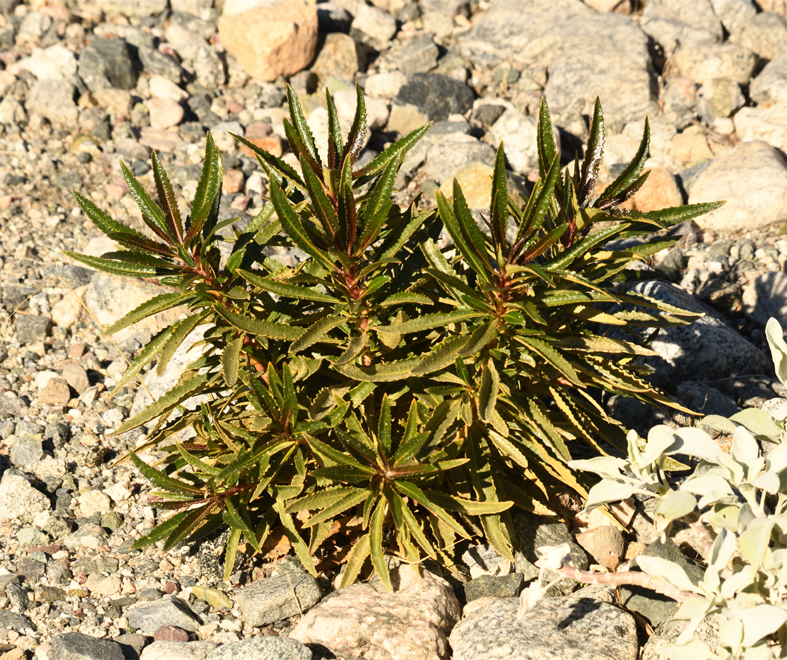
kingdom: Plantae
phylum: Tracheophyta
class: Magnoliopsida
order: Boraginales
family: Namaceae
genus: Eriodictyon
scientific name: Eriodictyon trichocalyx
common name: Hairy yerba-santa
